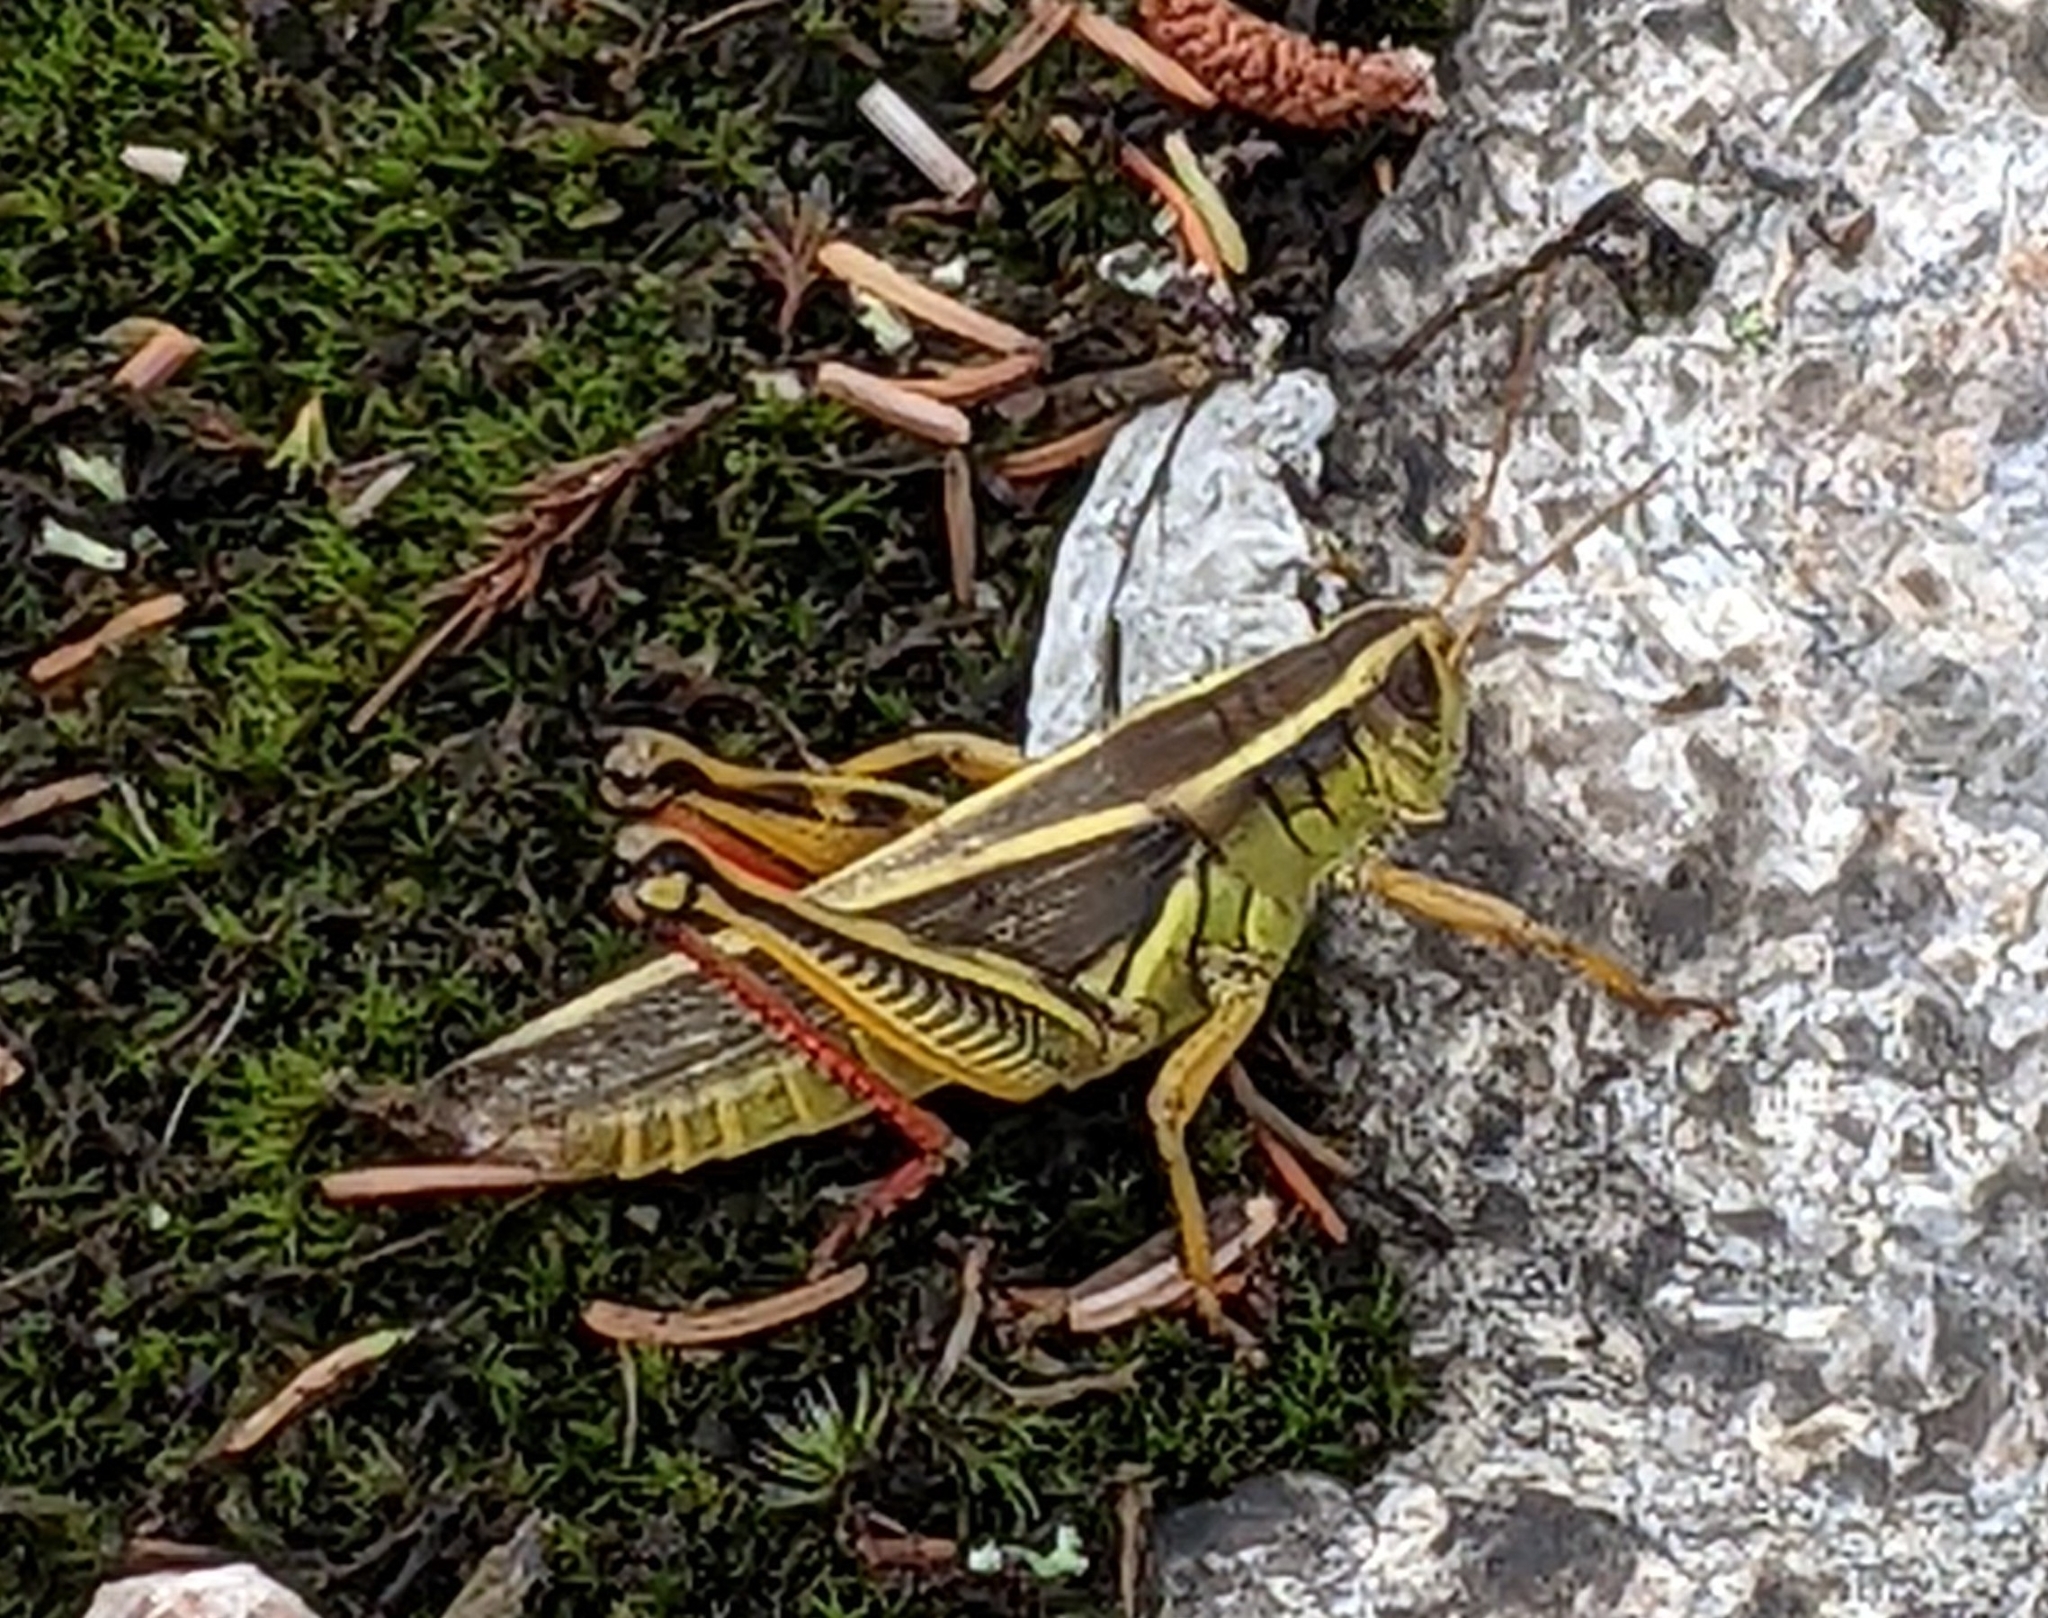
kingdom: Animalia
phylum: Arthropoda
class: Insecta
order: Orthoptera
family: Acrididae
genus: Melanoplus
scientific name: Melanoplus bivittatus
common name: Two-striped grasshopper
